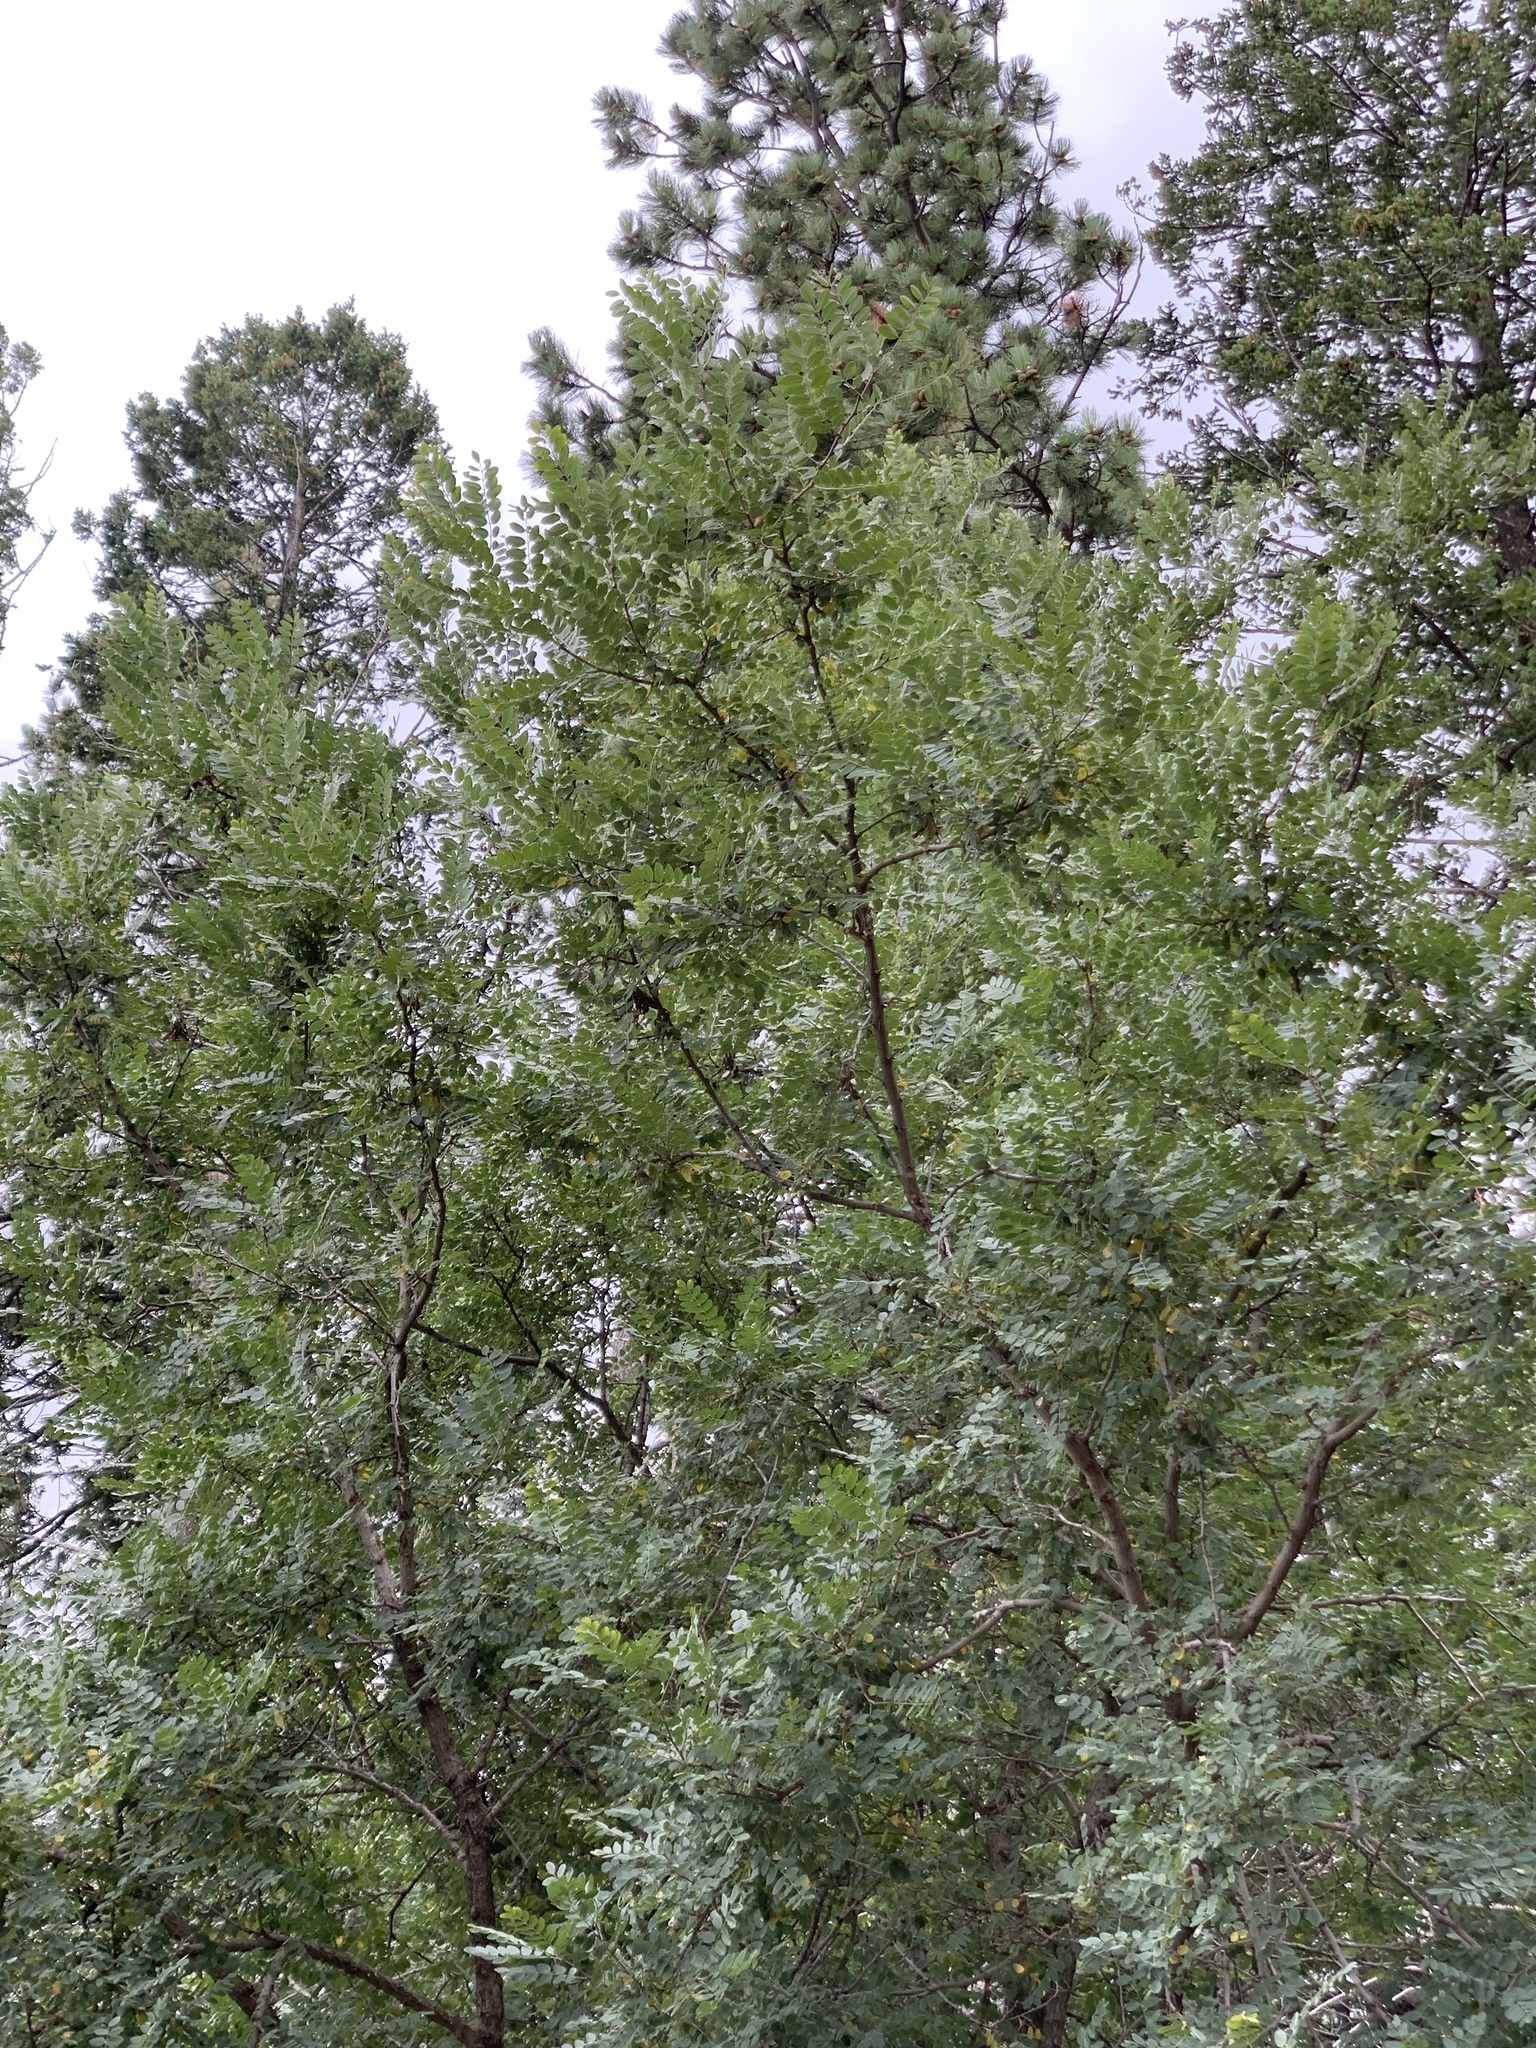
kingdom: Plantae
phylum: Tracheophyta
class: Magnoliopsida
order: Fabales
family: Fabaceae
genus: Robinia
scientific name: Robinia neomexicana
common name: New mexico locust
